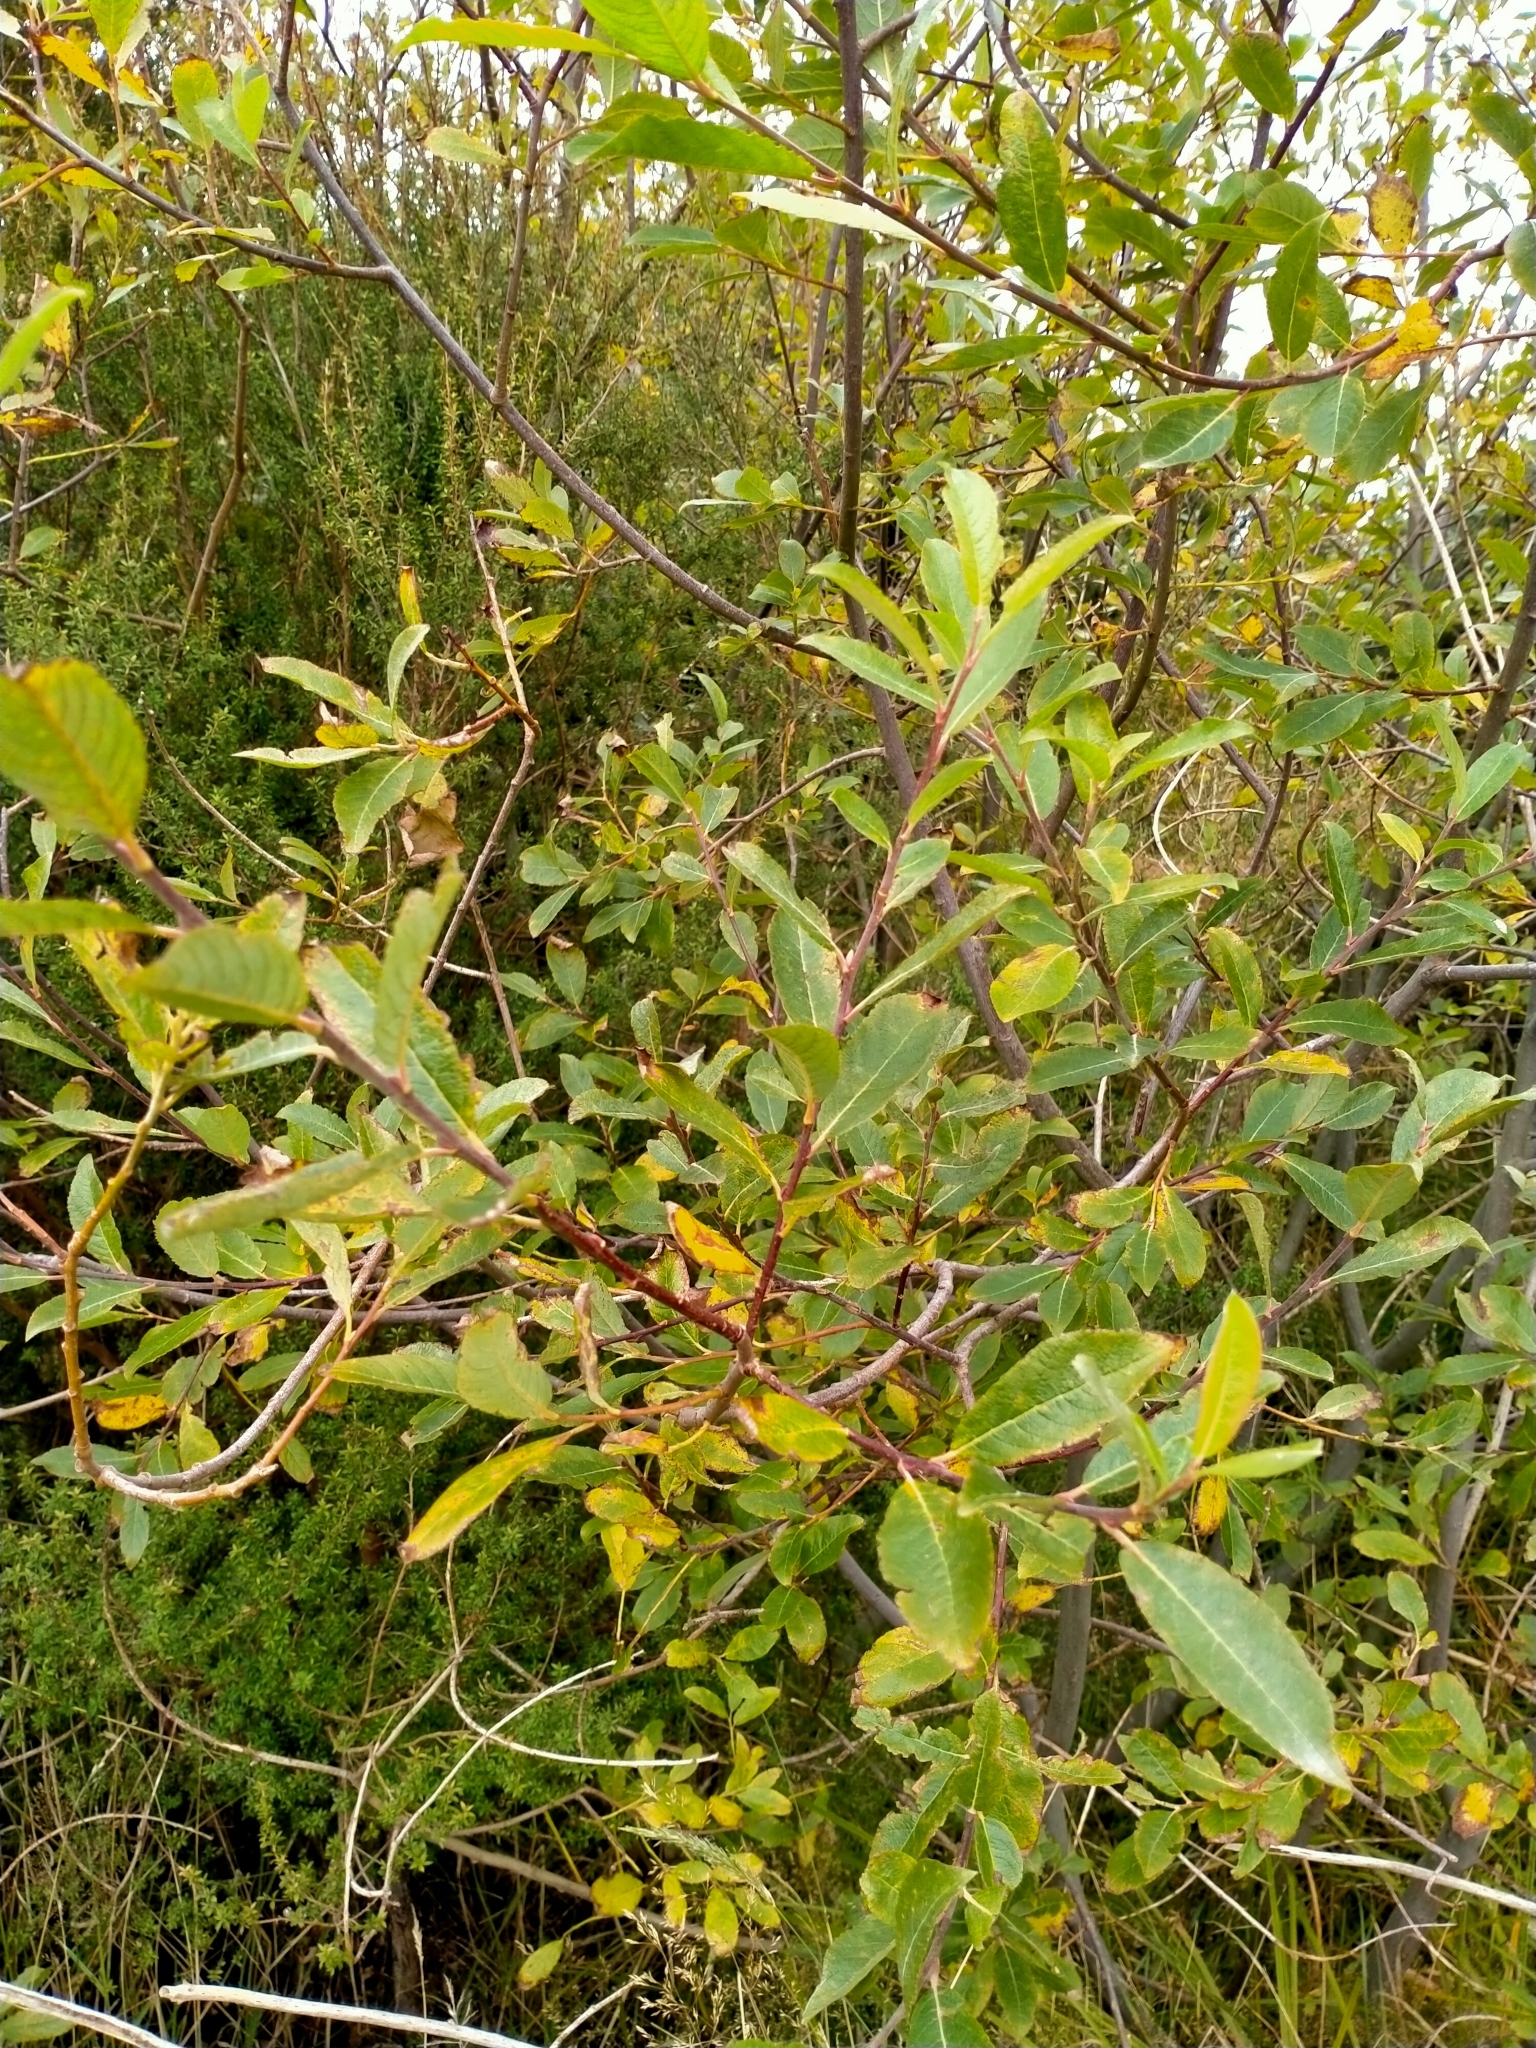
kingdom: Plantae
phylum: Tracheophyta
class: Magnoliopsida
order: Malpighiales
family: Salicaceae
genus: Salix
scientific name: Salix cinerea
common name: Common sallow
